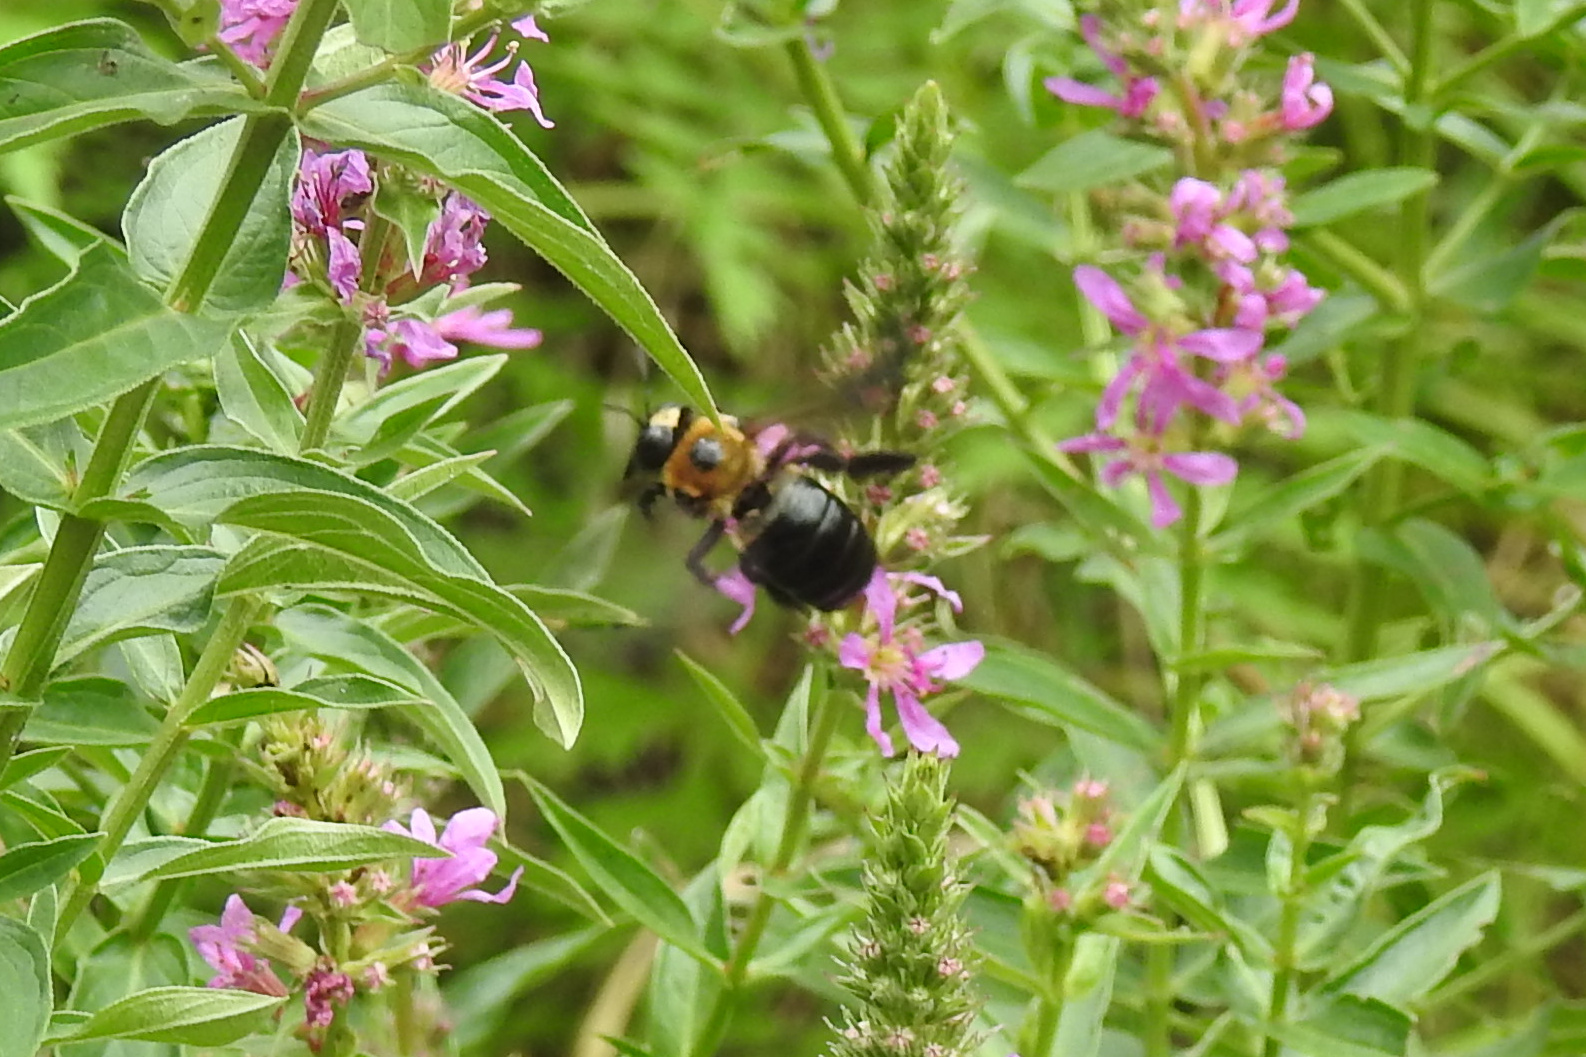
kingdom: Animalia
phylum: Arthropoda
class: Insecta
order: Hymenoptera
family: Apidae
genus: Xylocopa
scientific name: Xylocopa virginica
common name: Carpenter bee
